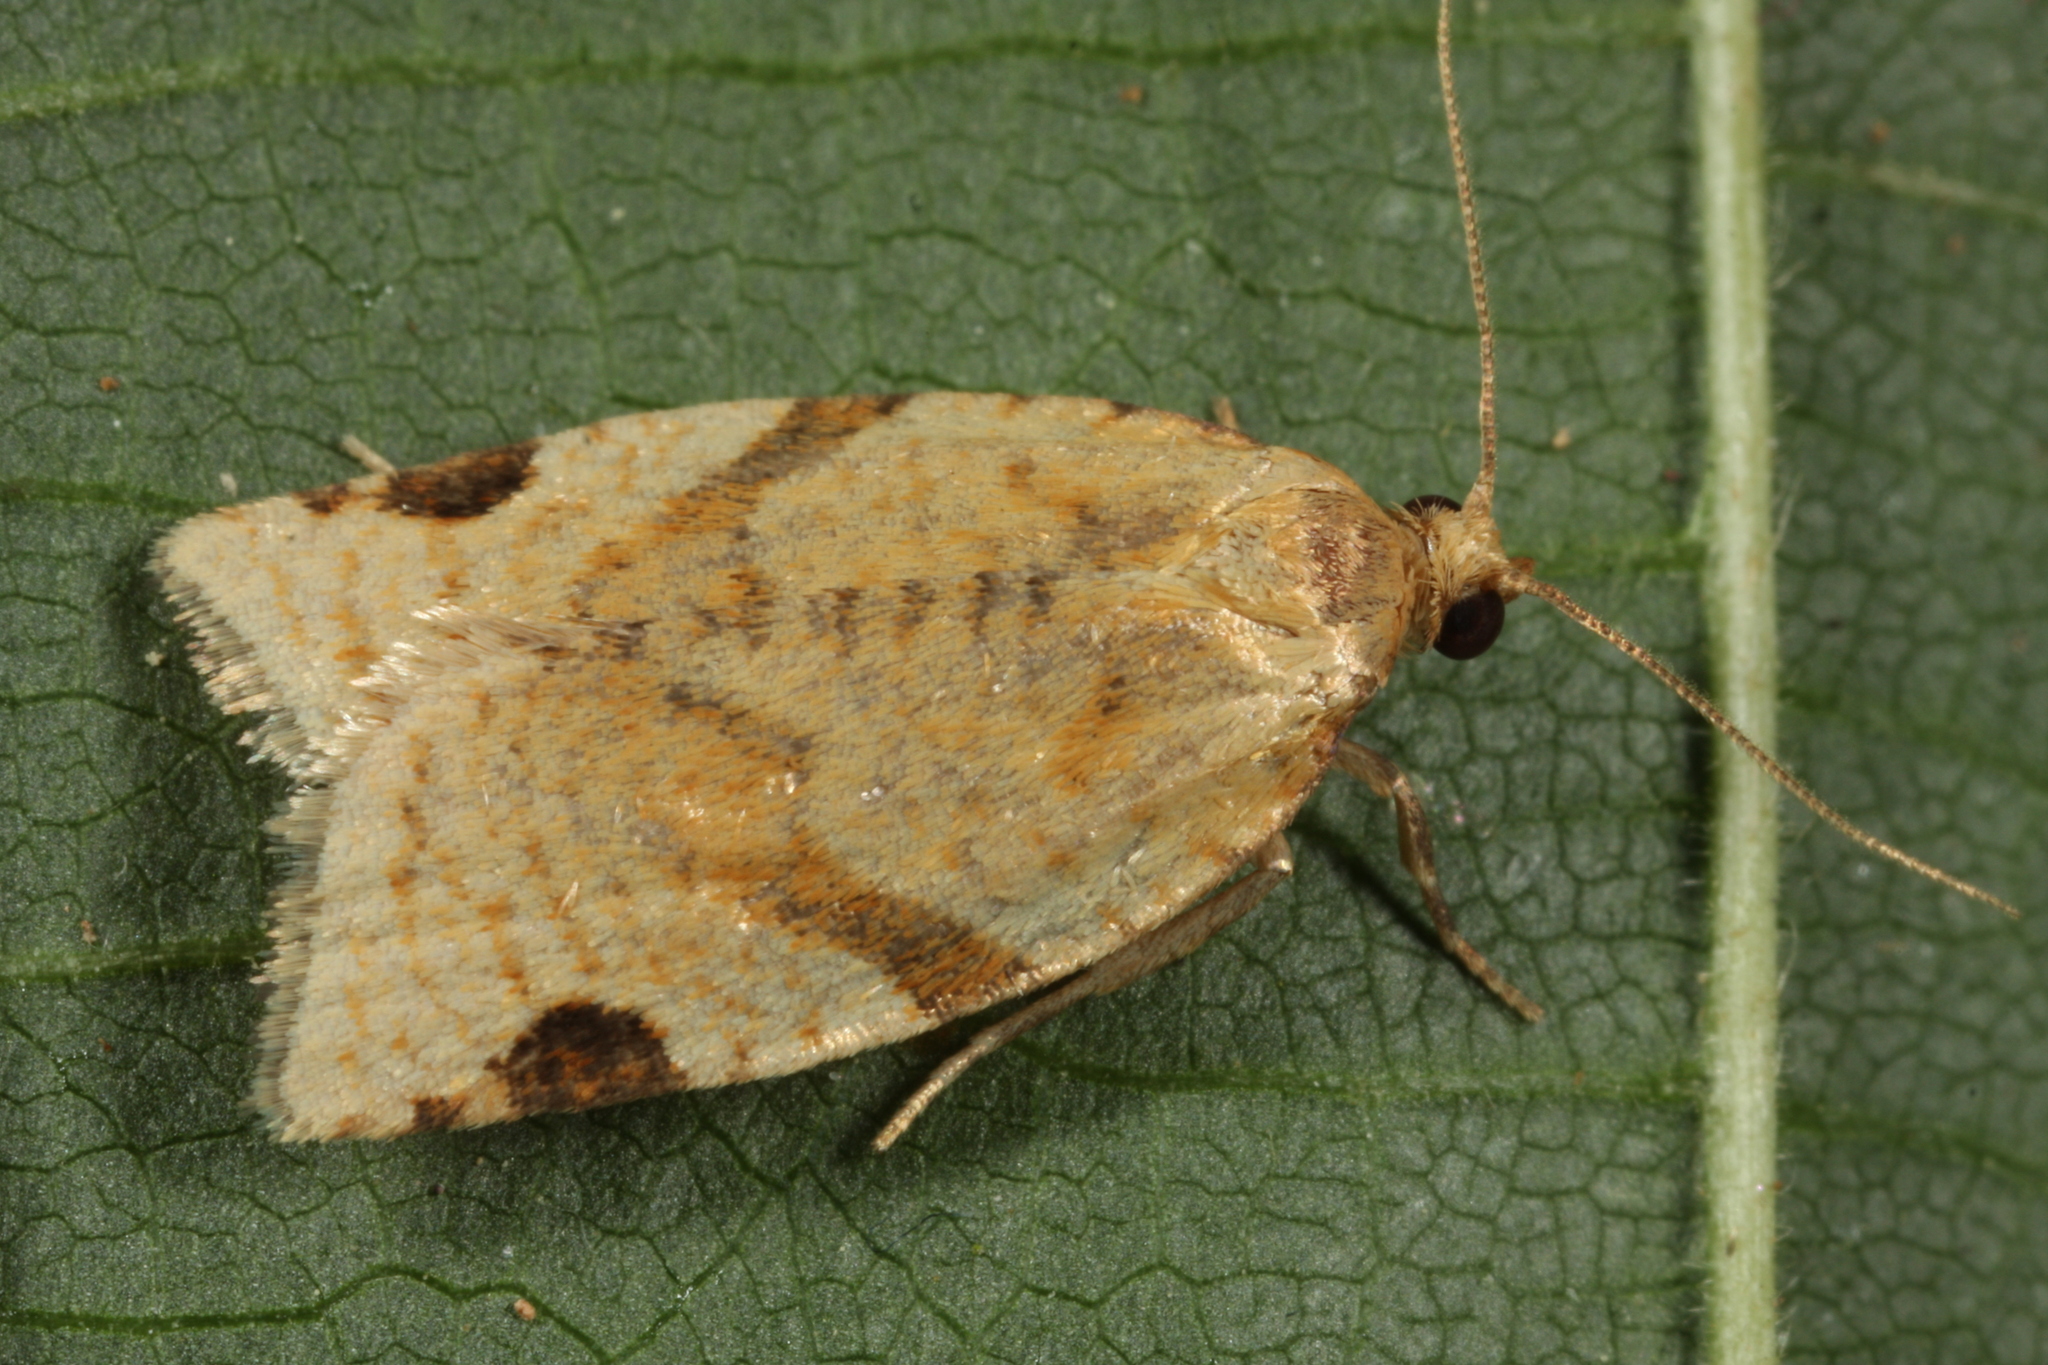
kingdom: Animalia
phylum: Arthropoda
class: Insecta
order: Lepidoptera
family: Tortricidae
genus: Paramesia
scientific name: Paramesia gnomana
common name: Small straw twist
